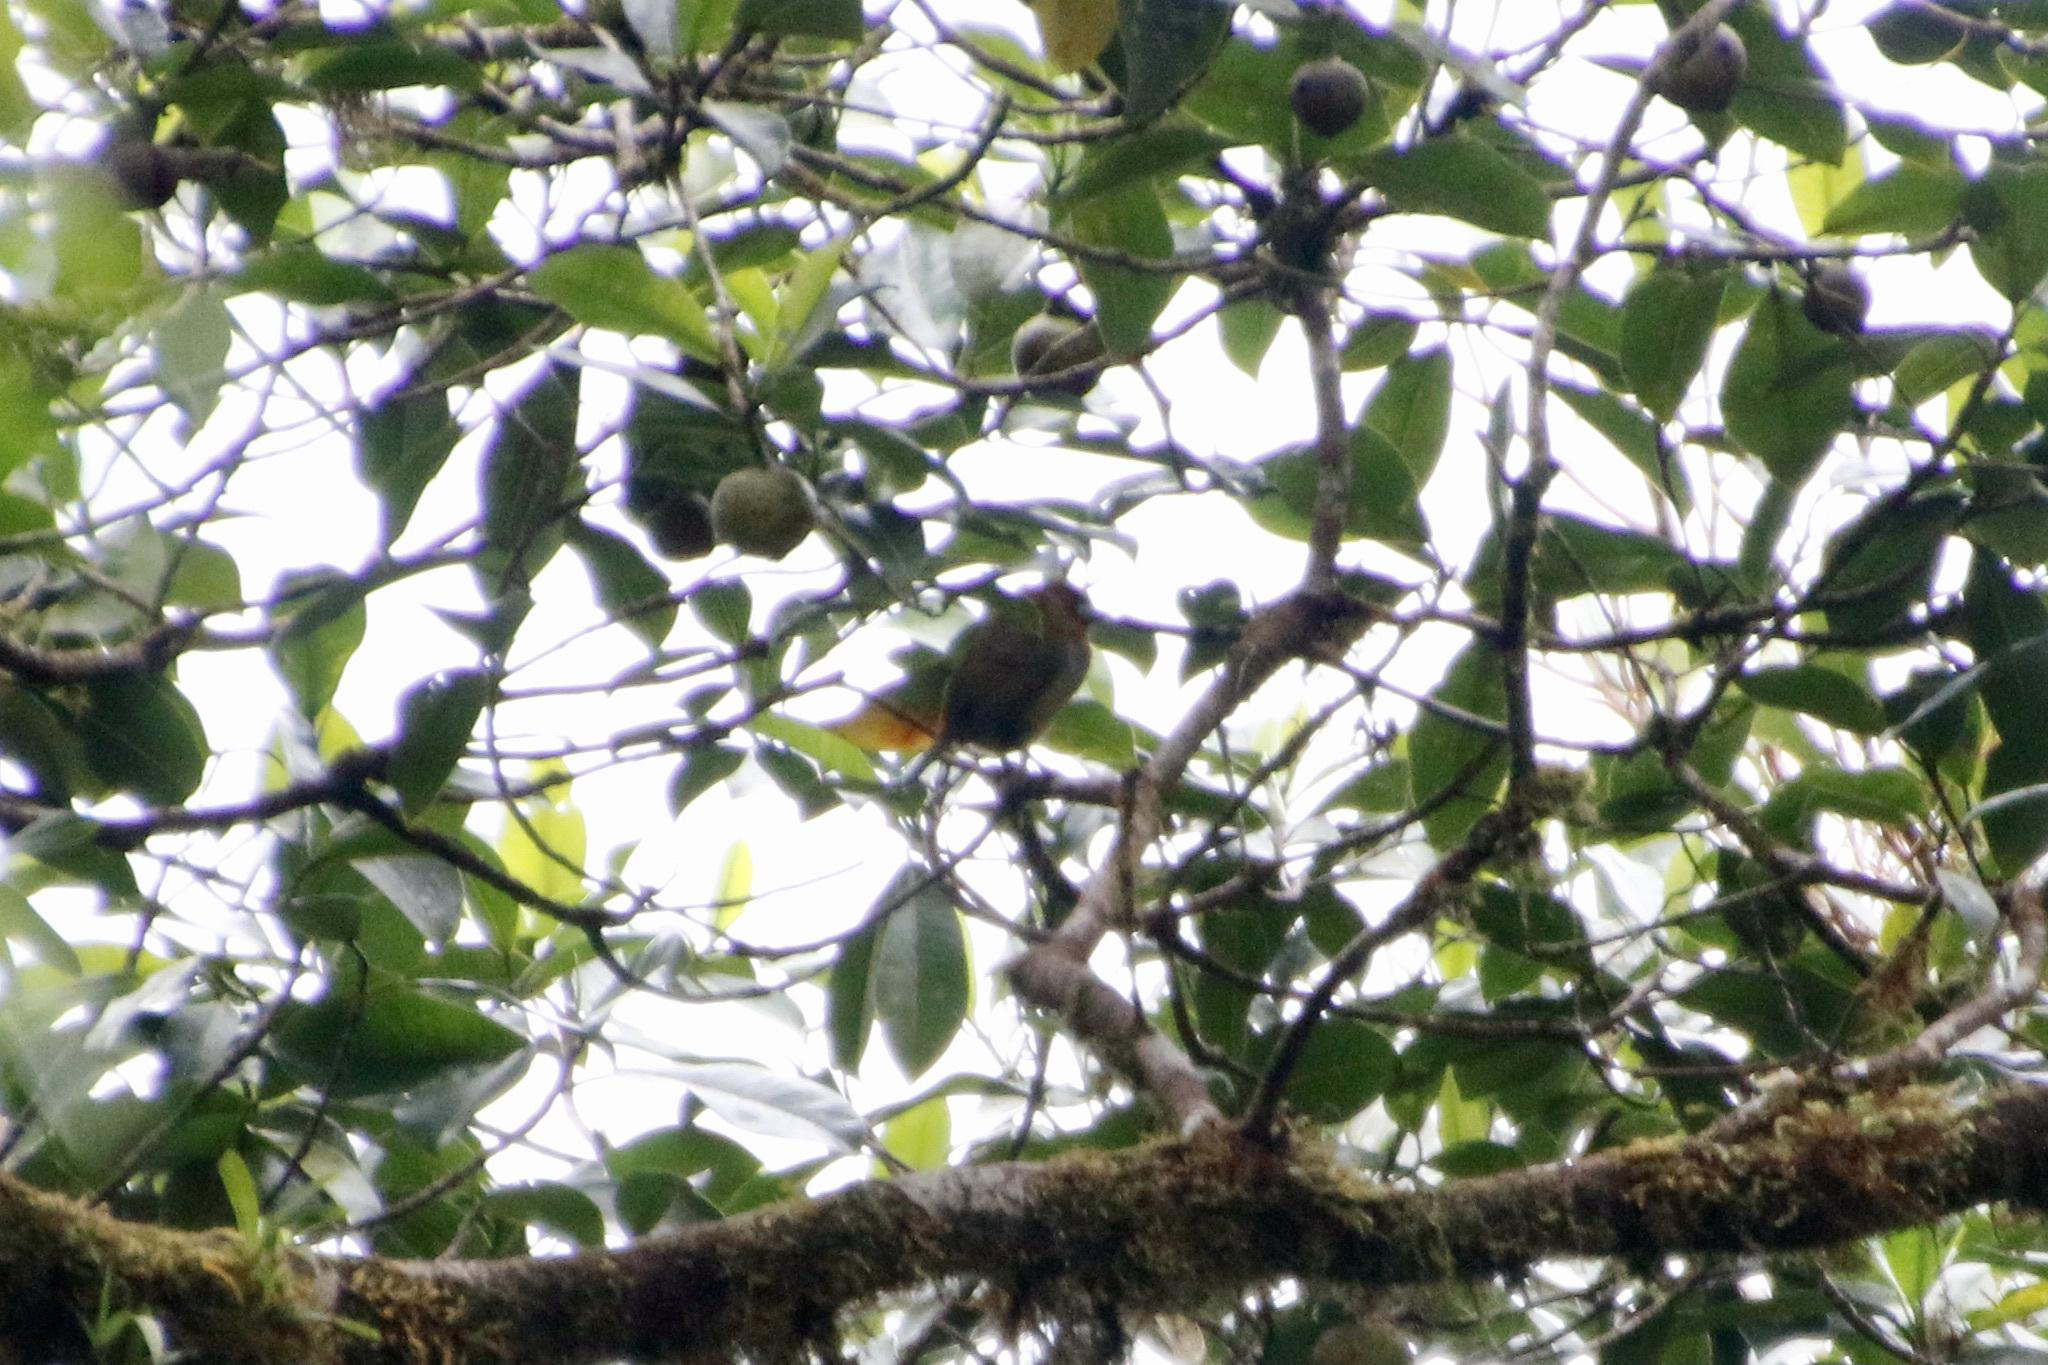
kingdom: Animalia
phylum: Chordata
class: Aves
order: Piciformes
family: Semnornithidae
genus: Semnornis
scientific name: Semnornis frantzii
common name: Prong-billed barbet
